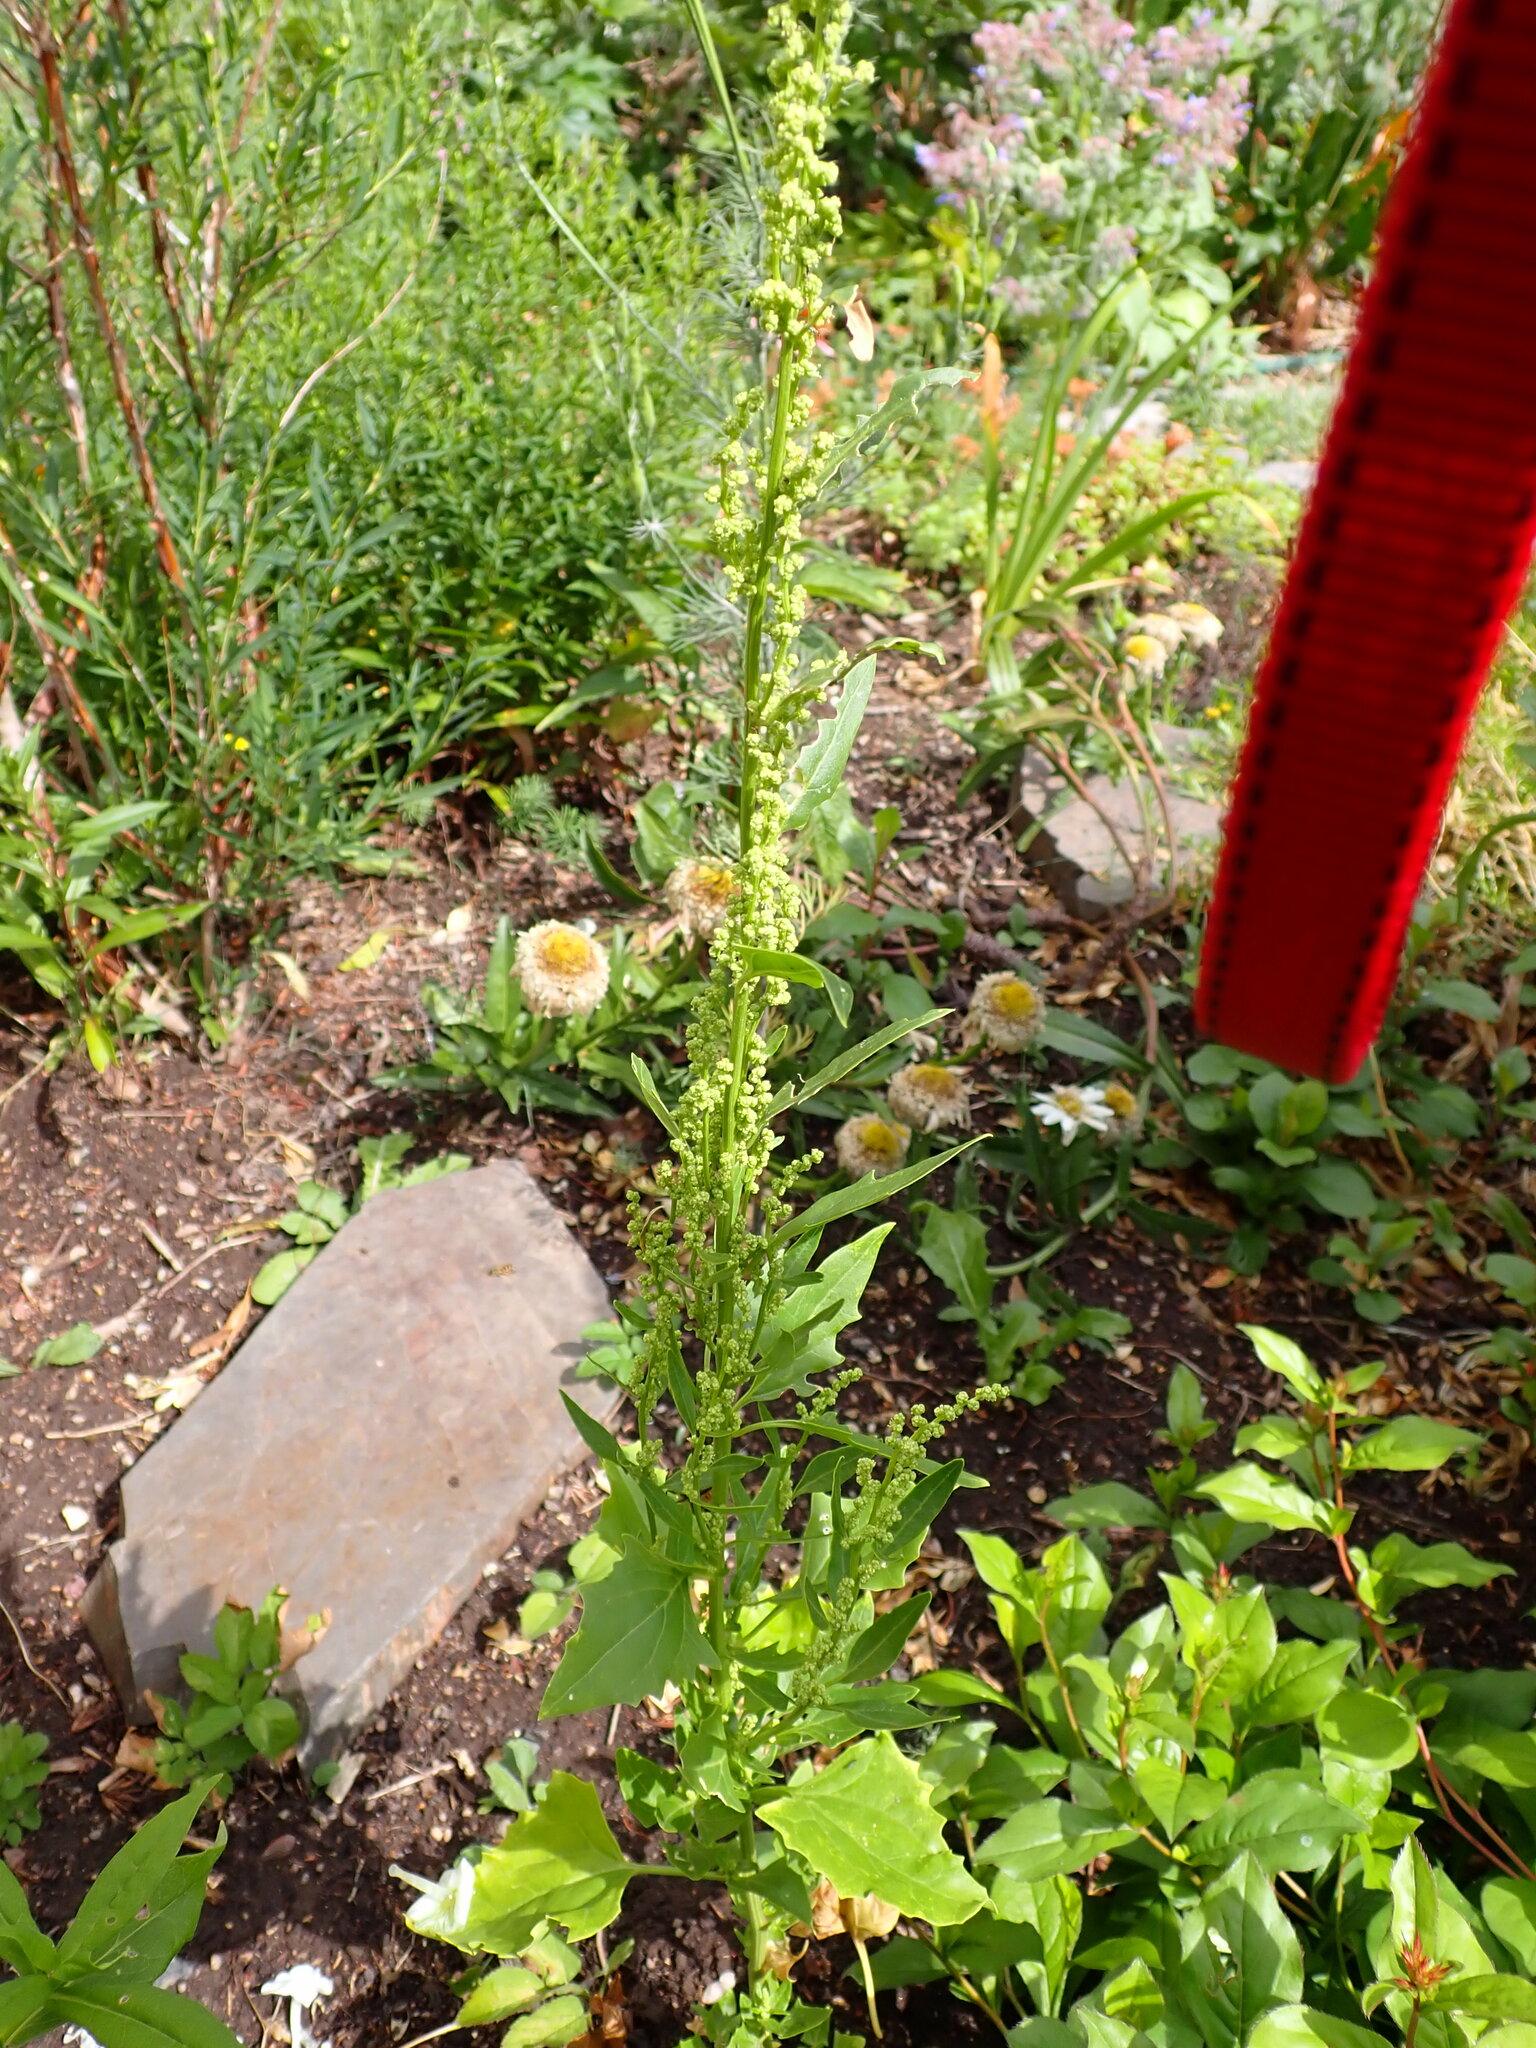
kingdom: Plantae
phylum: Tracheophyta
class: Magnoliopsida
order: Caryophyllales
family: Amaranthaceae
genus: Oxybasis
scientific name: Oxybasis urbica
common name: City goosefoot
